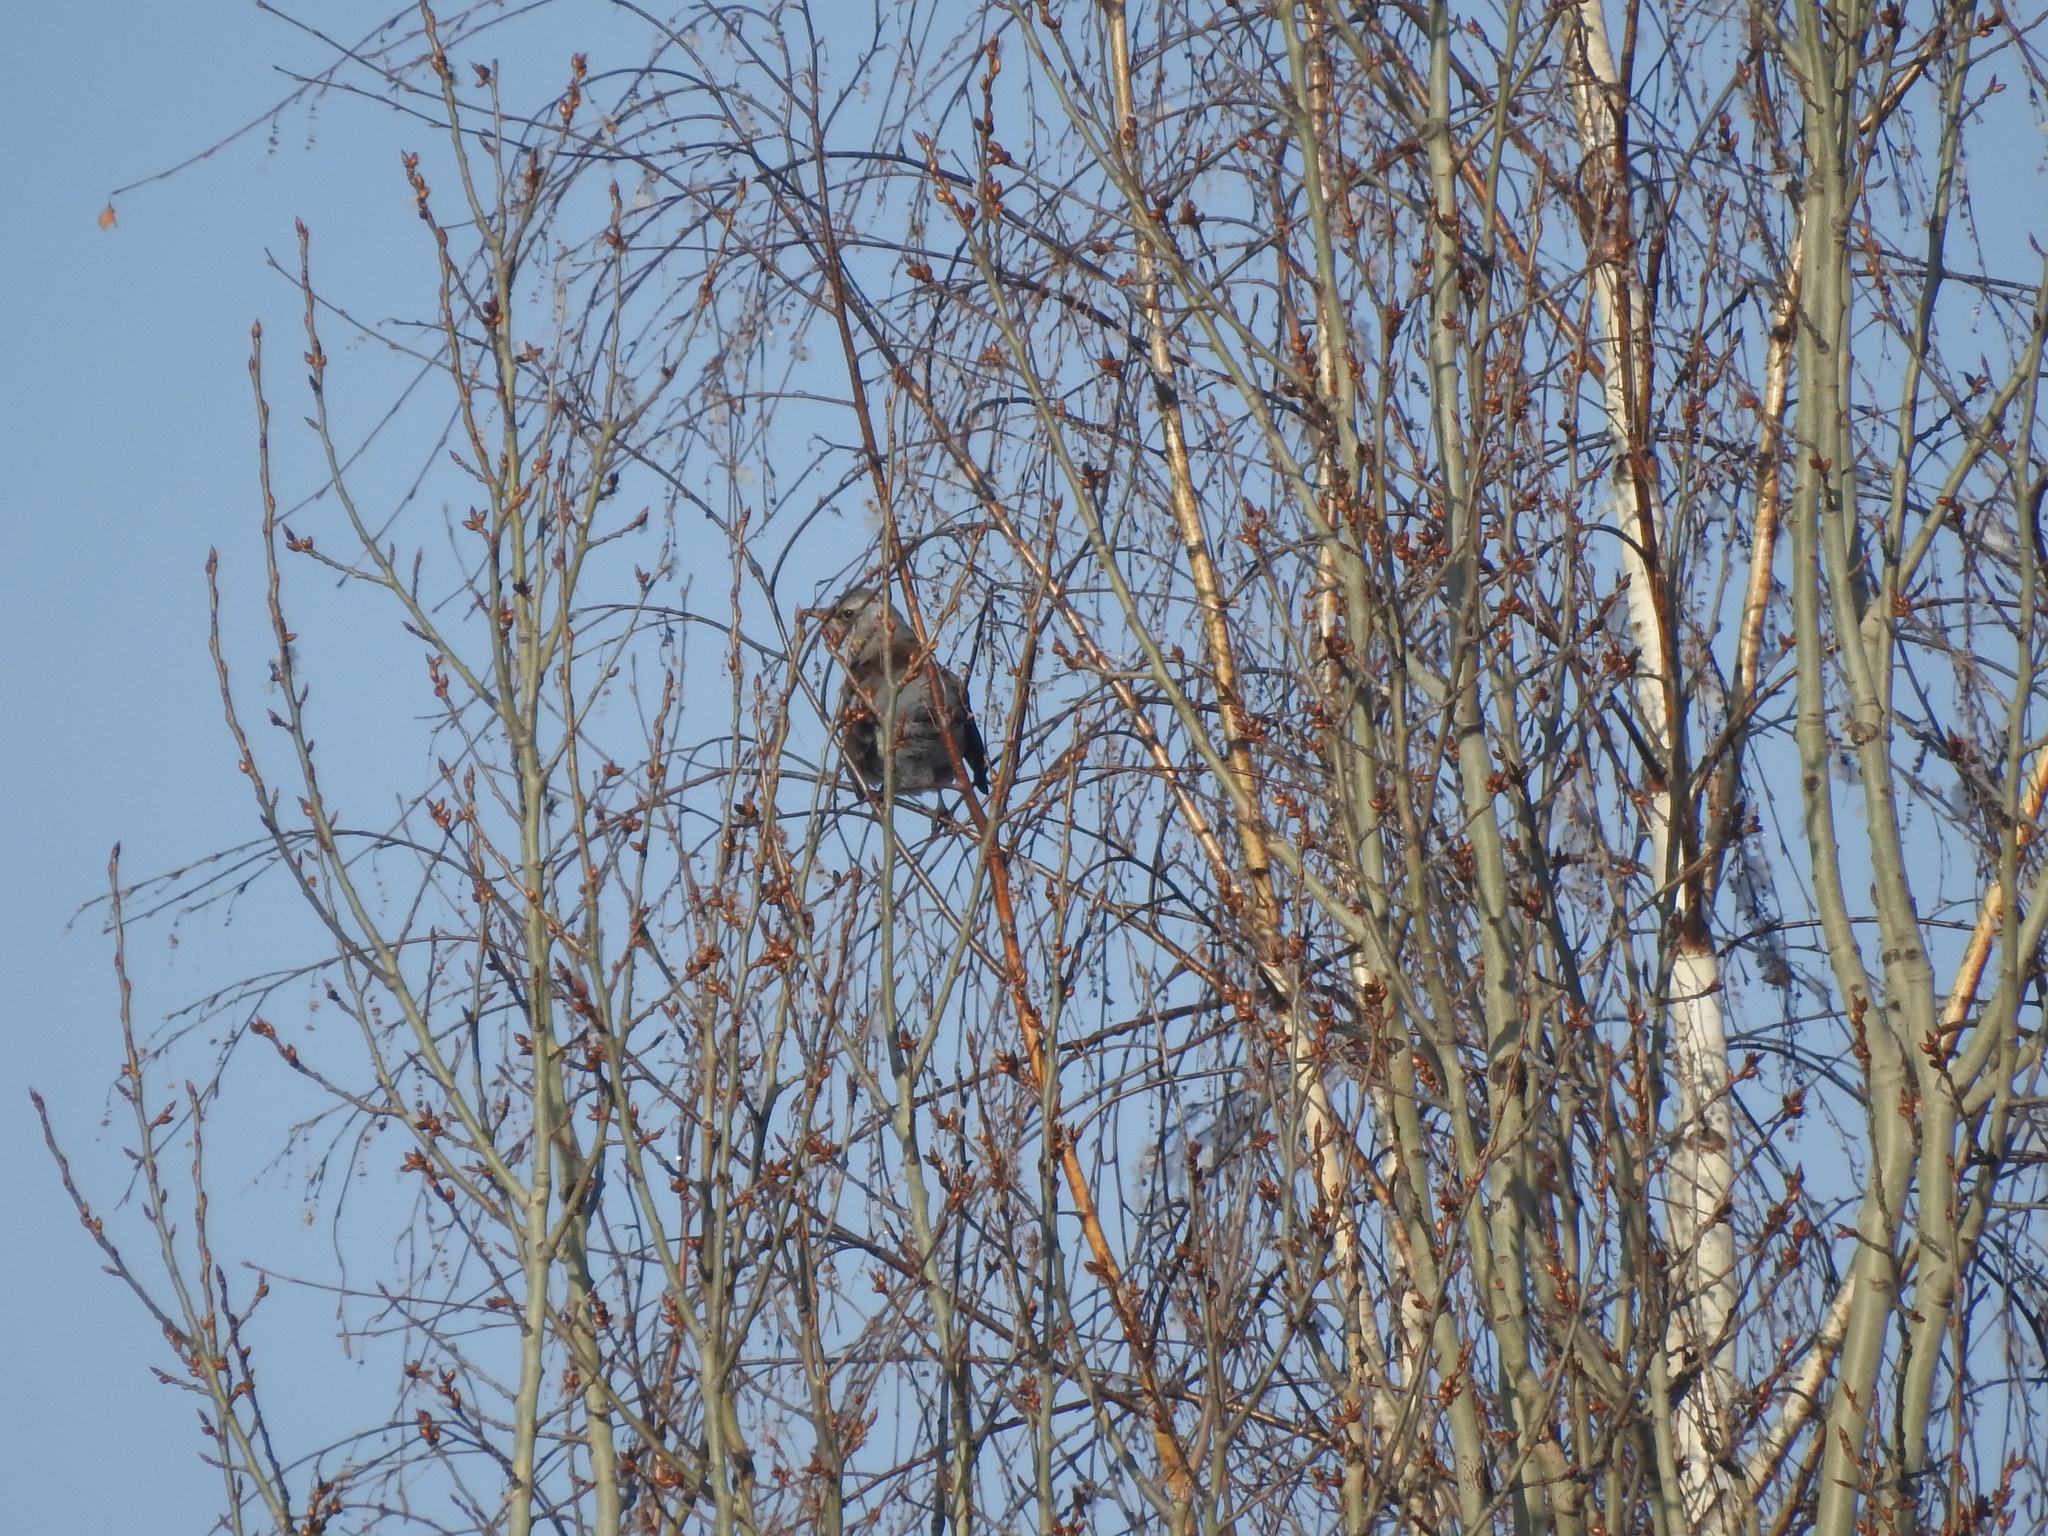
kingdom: Animalia
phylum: Chordata
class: Aves
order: Passeriformes
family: Turdidae
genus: Turdus
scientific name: Turdus pilaris
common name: Fieldfare
